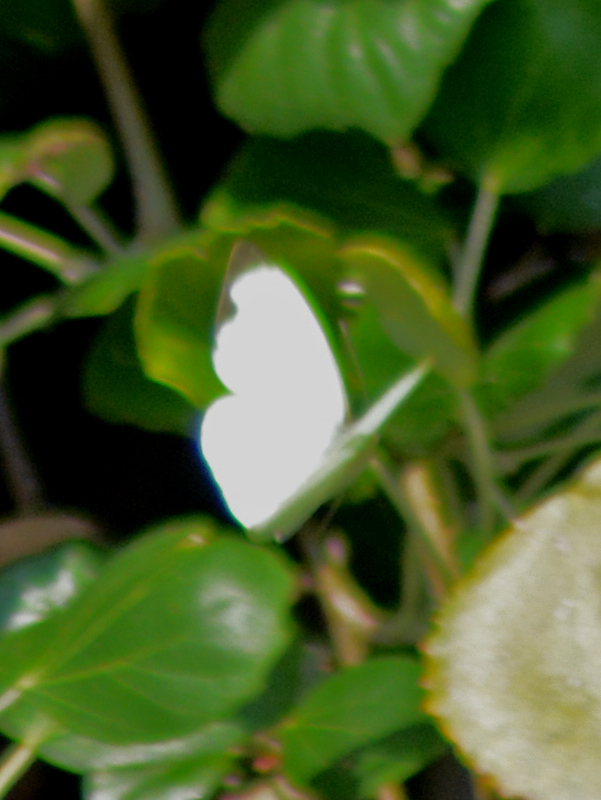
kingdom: Animalia
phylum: Arthropoda
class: Insecta
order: Lepidoptera
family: Pieridae
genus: Leptophobia
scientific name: Leptophobia aripa
